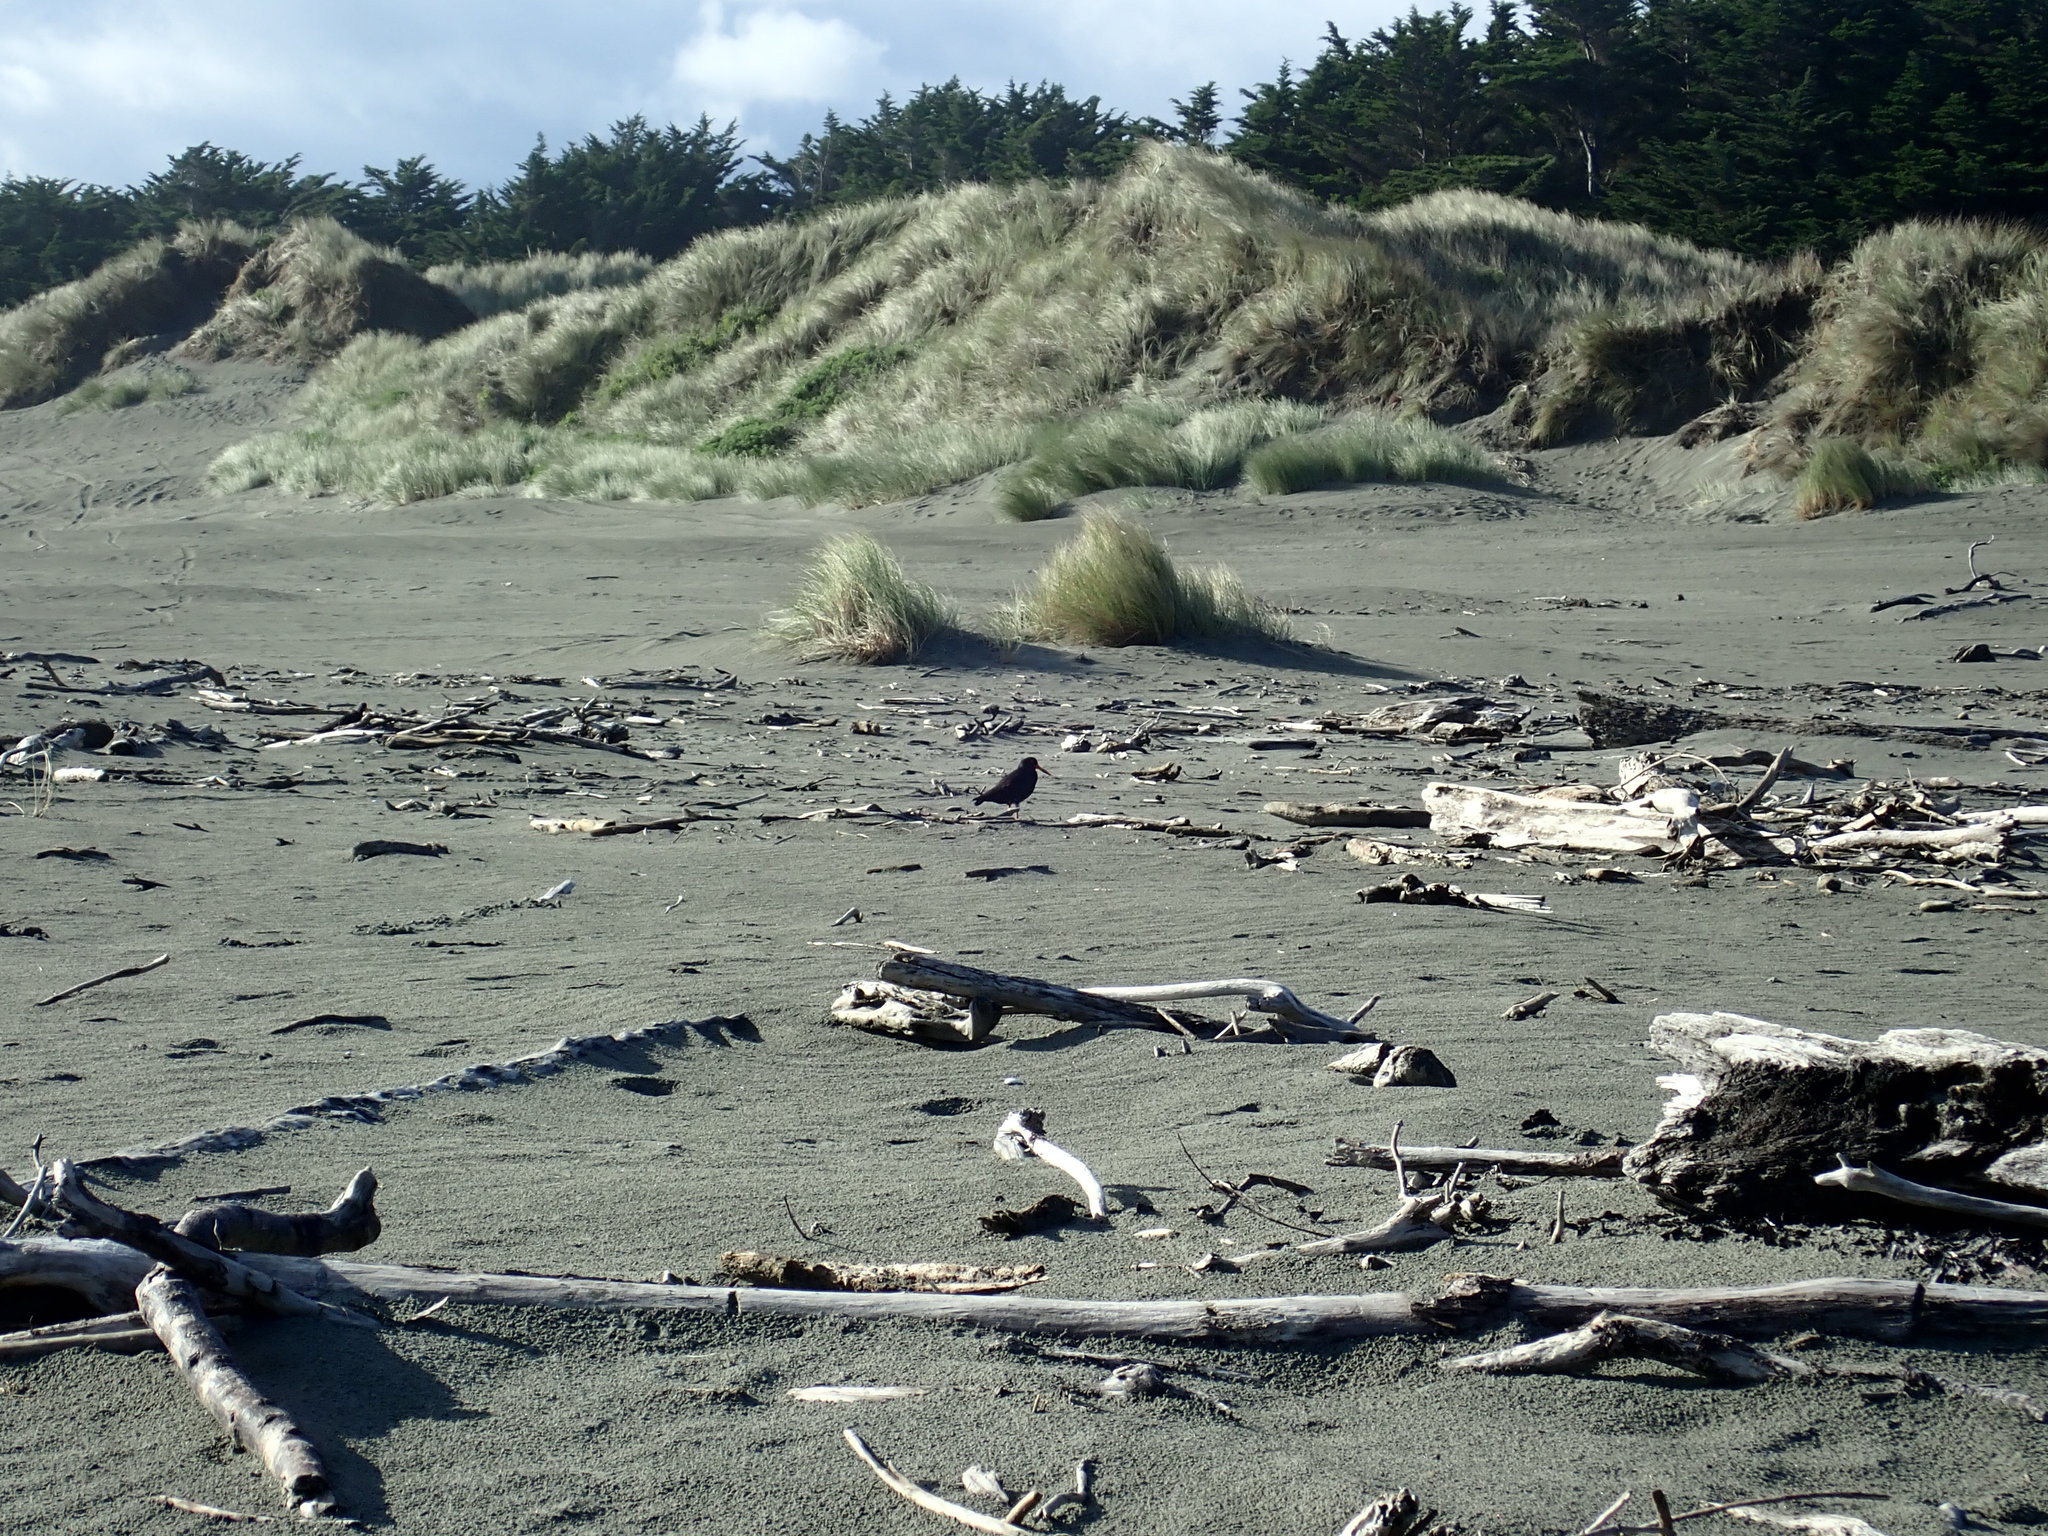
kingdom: Animalia
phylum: Chordata
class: Aves
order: Charadriiformes
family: Haematopodidae
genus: Haematopus
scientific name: Haematopus unicolor
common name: Variable oystercatcher
